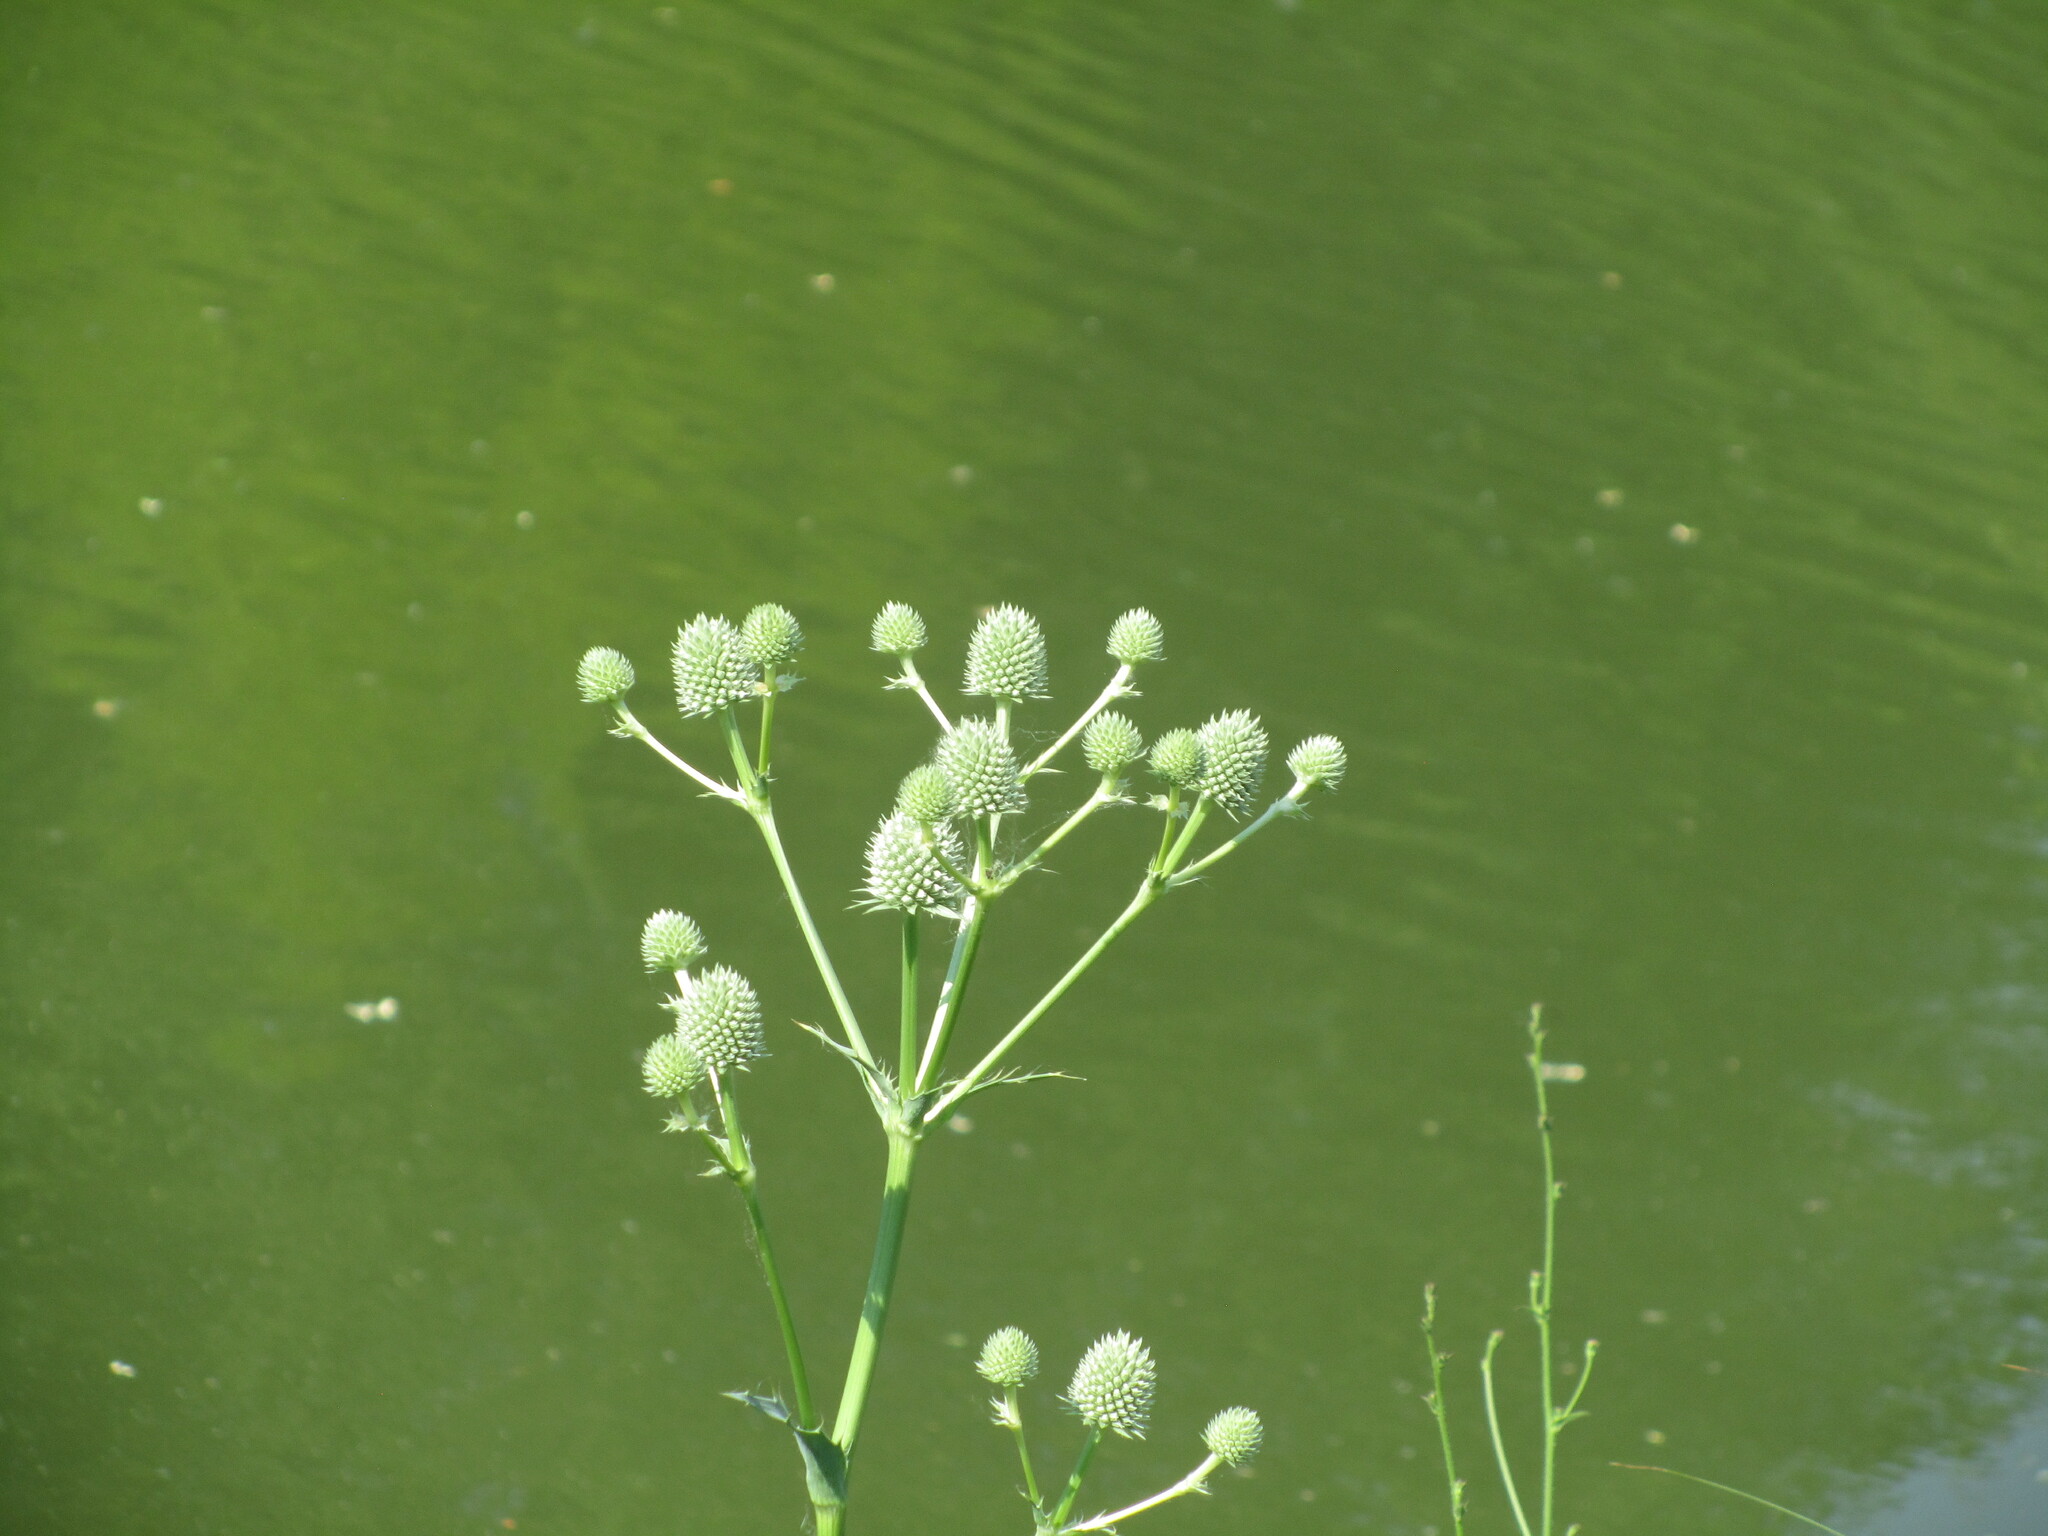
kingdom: Plantae
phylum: Tracheophyta
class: Magnoliopsida
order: Apiales
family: Apiaceae
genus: Eryngium
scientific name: Eryngium yuccifolium
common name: Button eryngo
